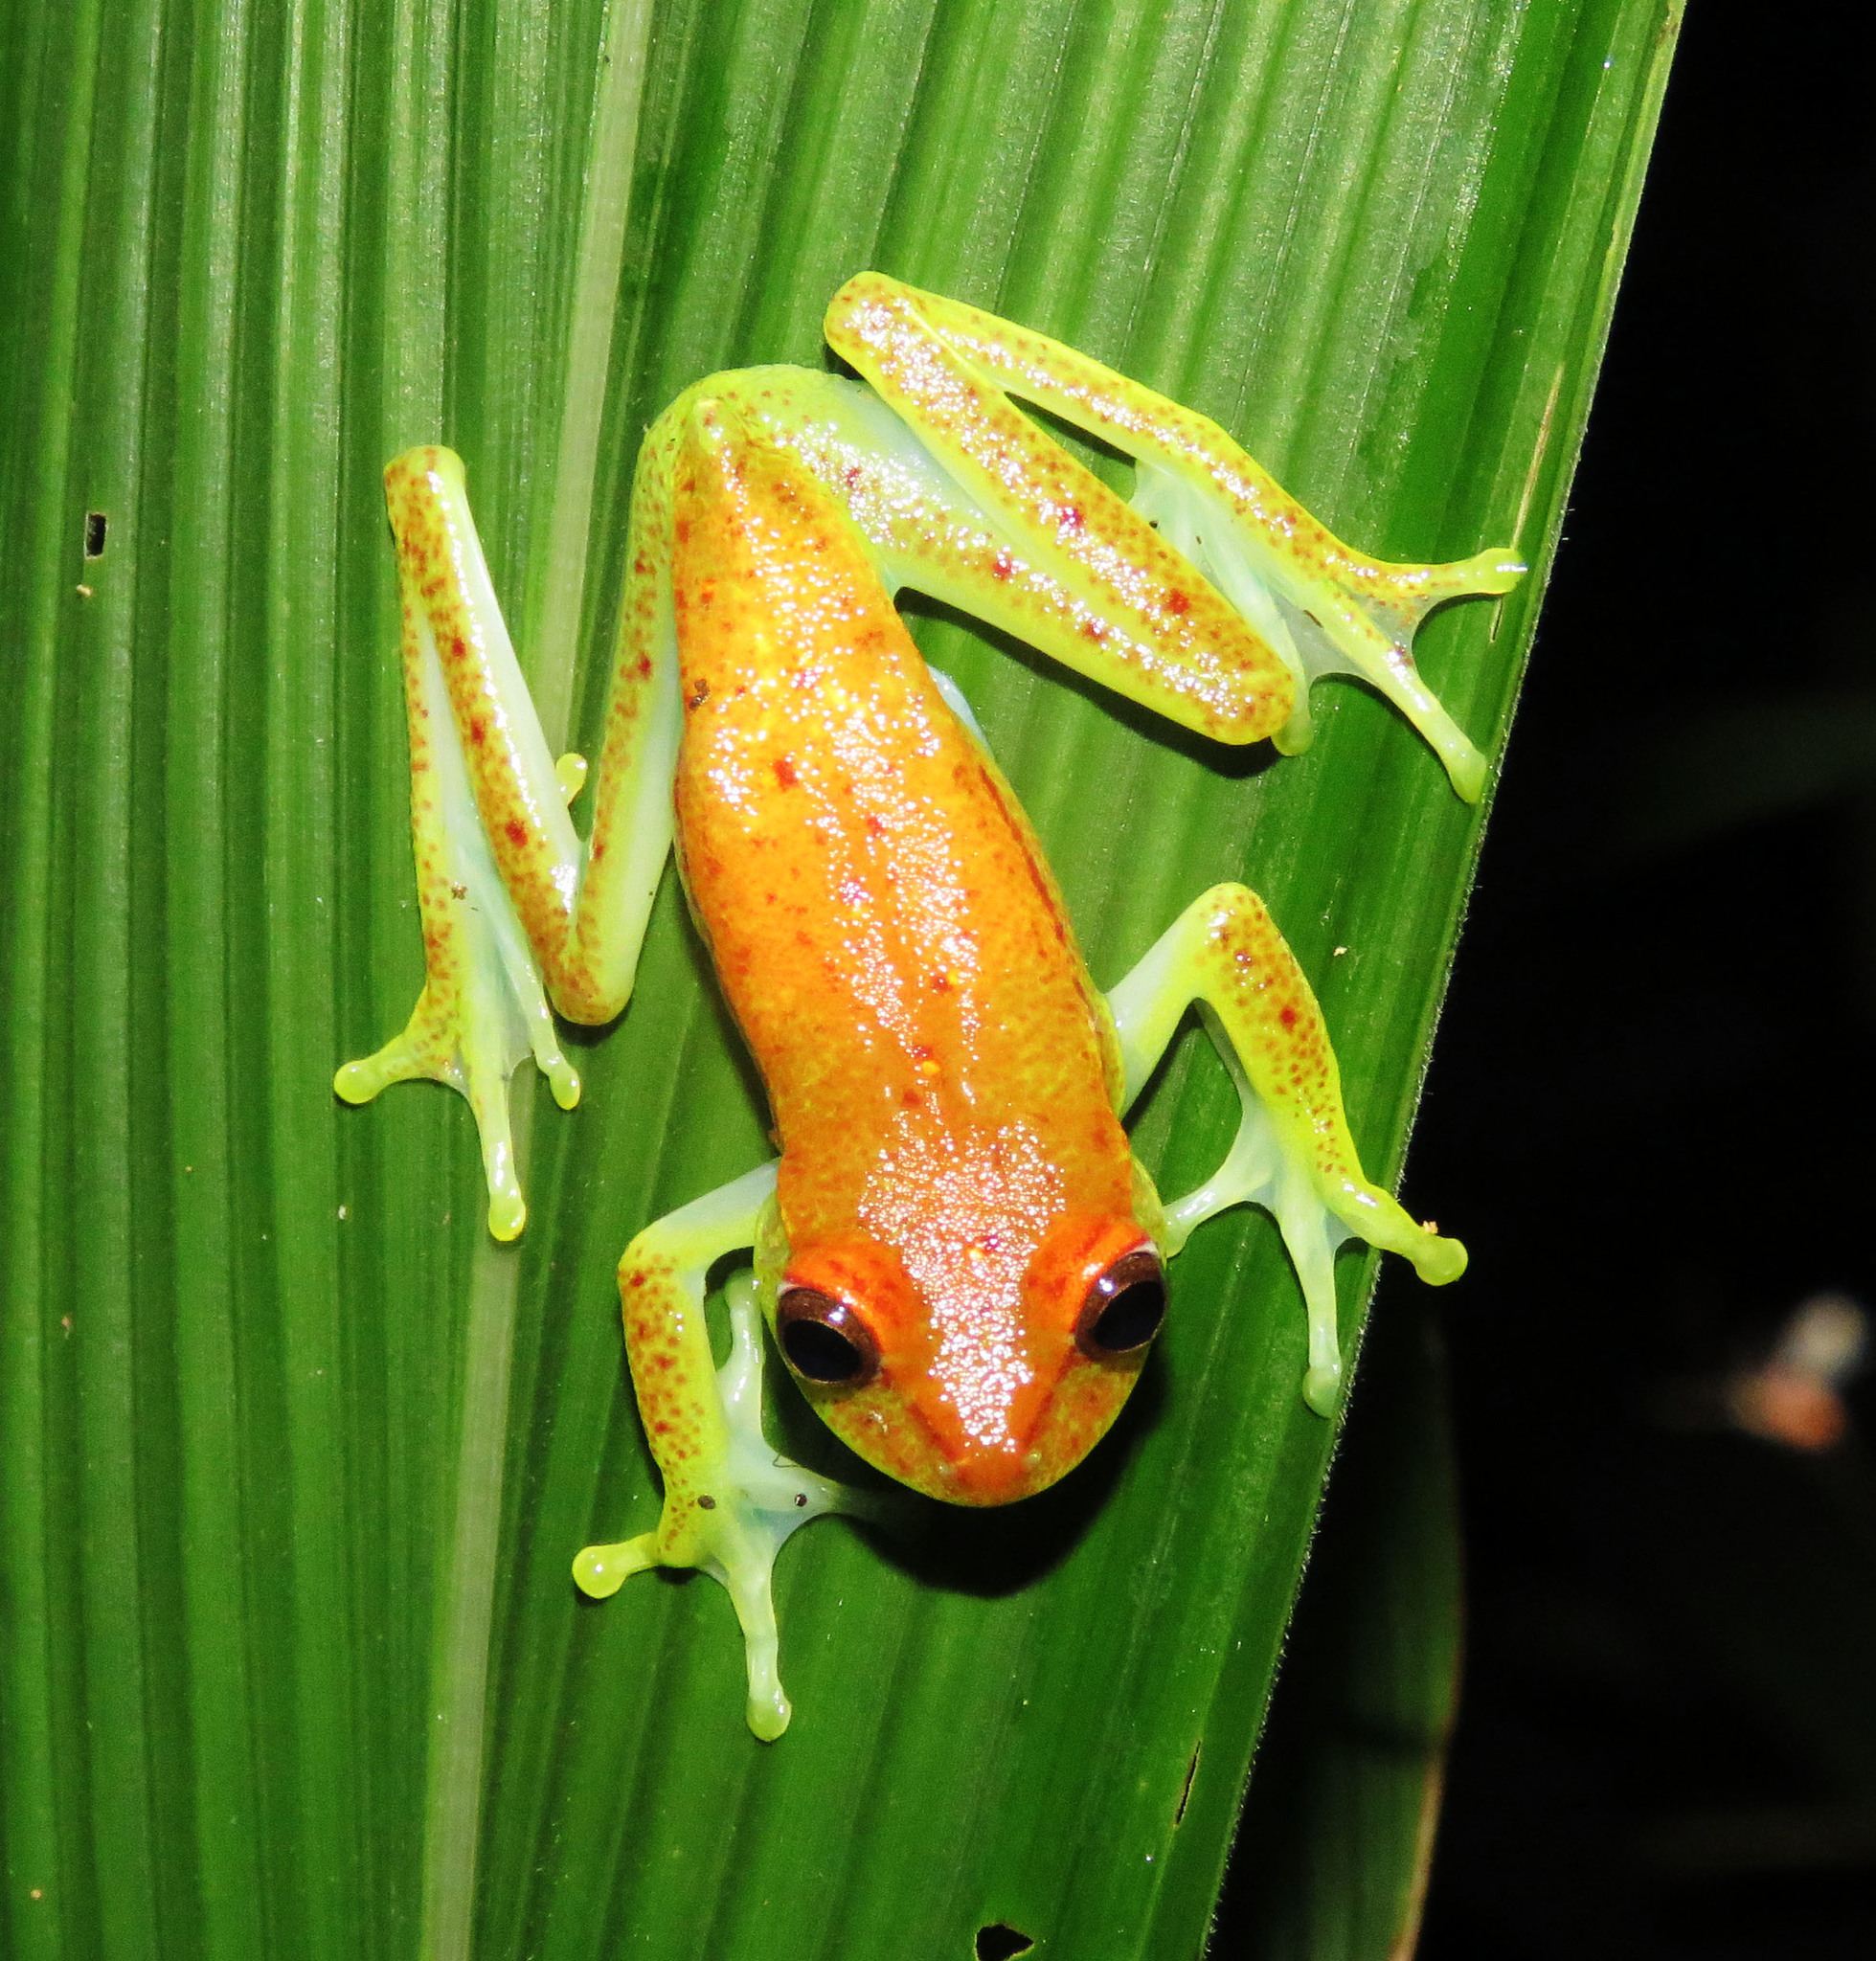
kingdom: Animalia
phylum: Chordata
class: Amphibia
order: Anura
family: Hylidae
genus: Boana
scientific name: Boana punctata
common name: Polka-dot treefrog
